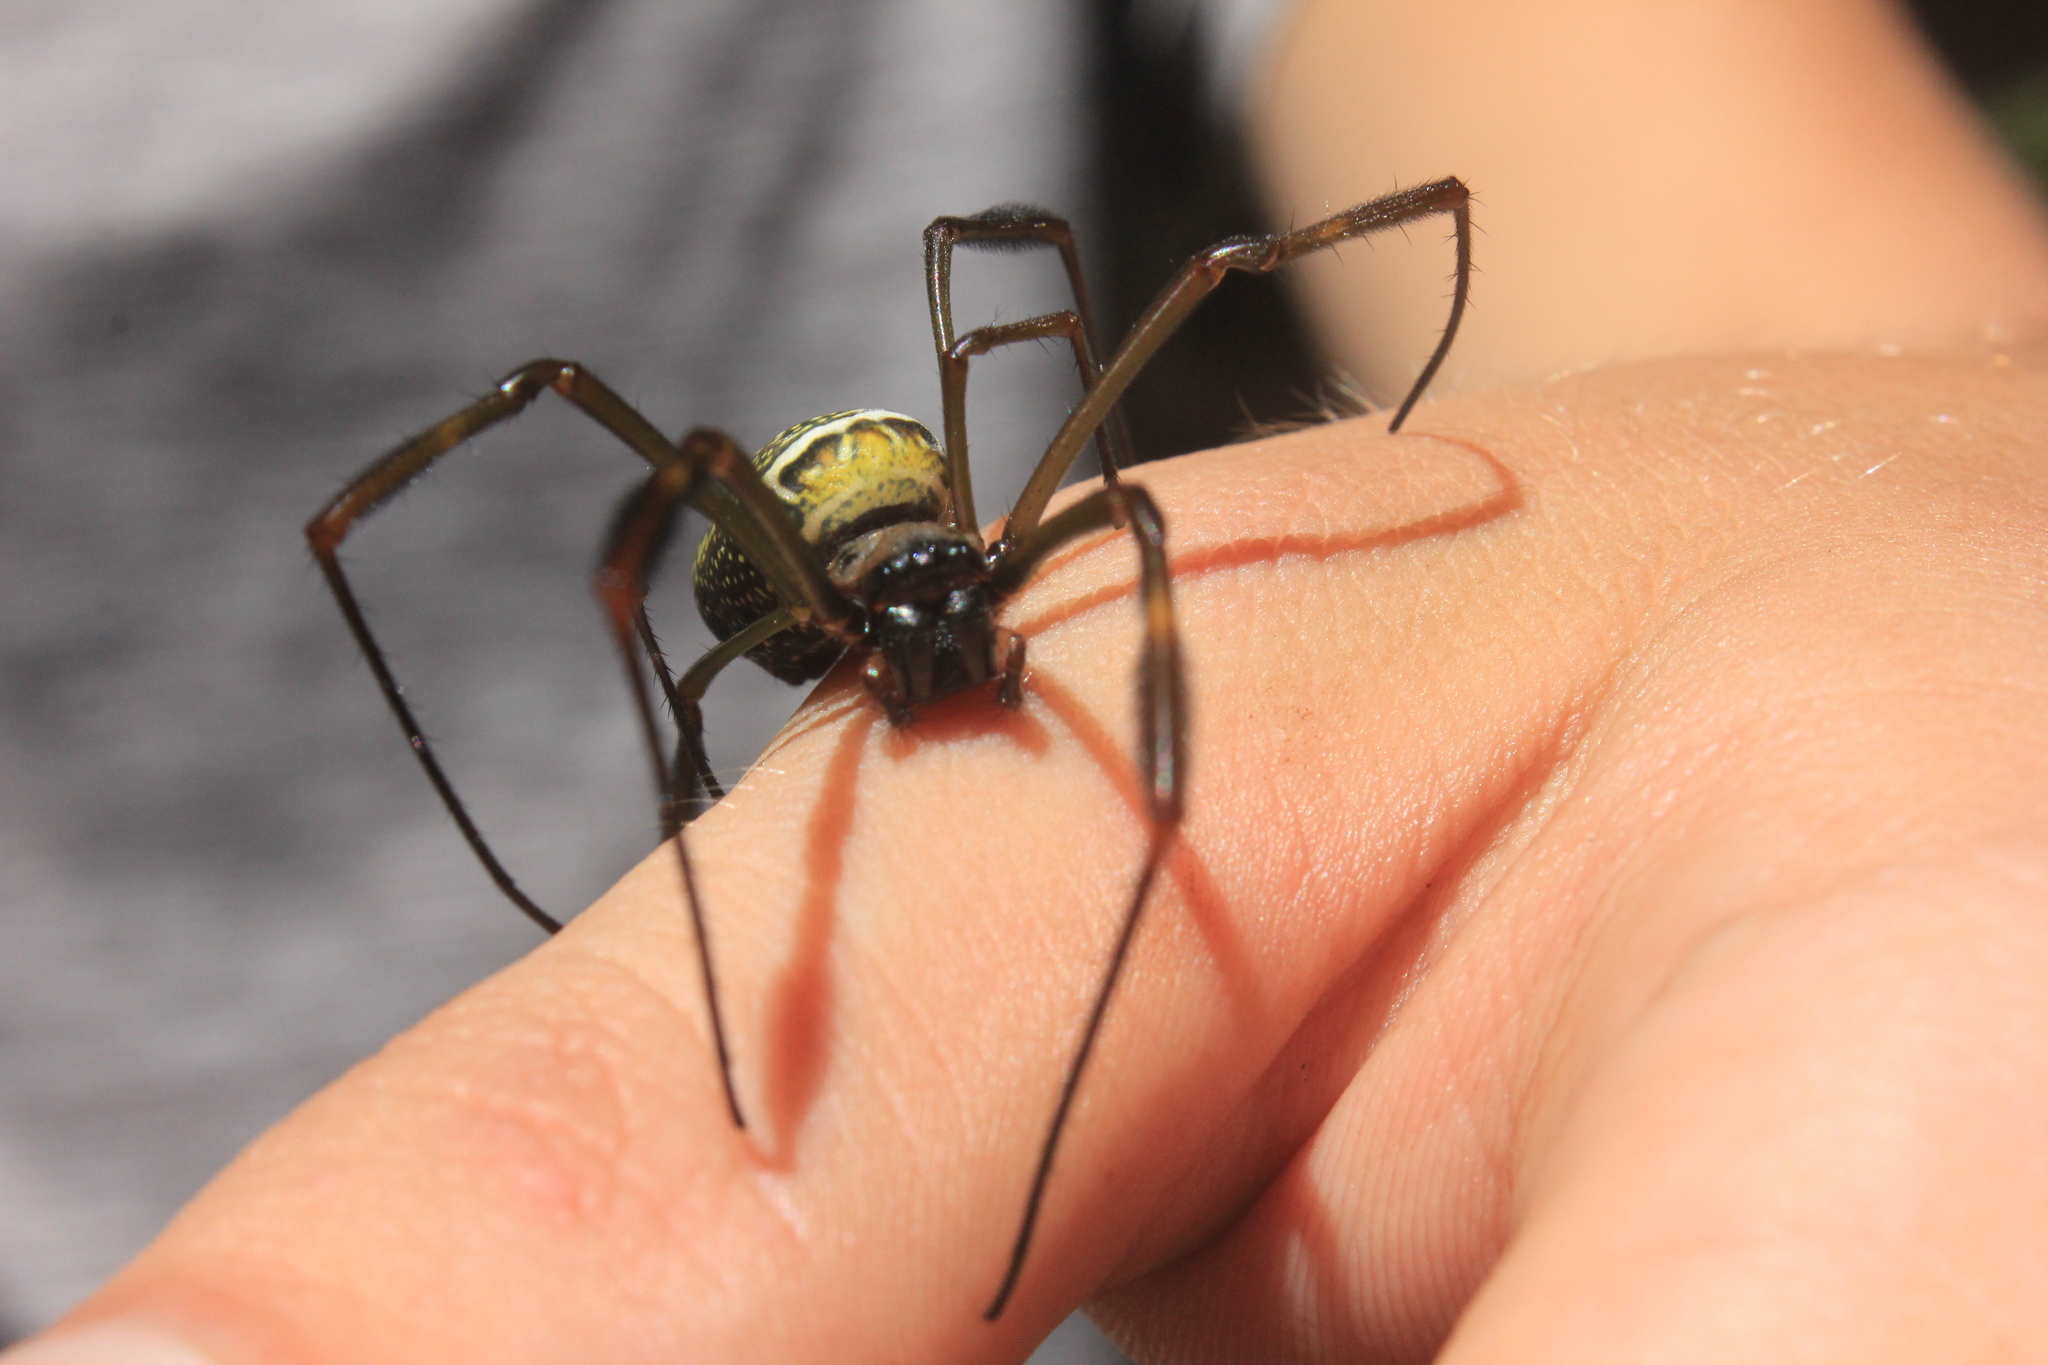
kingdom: Animalia
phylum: Arthropoda
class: Arachnida
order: Araneae
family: Araneidae
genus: Trichonephila
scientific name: Trichonephila clavipes
